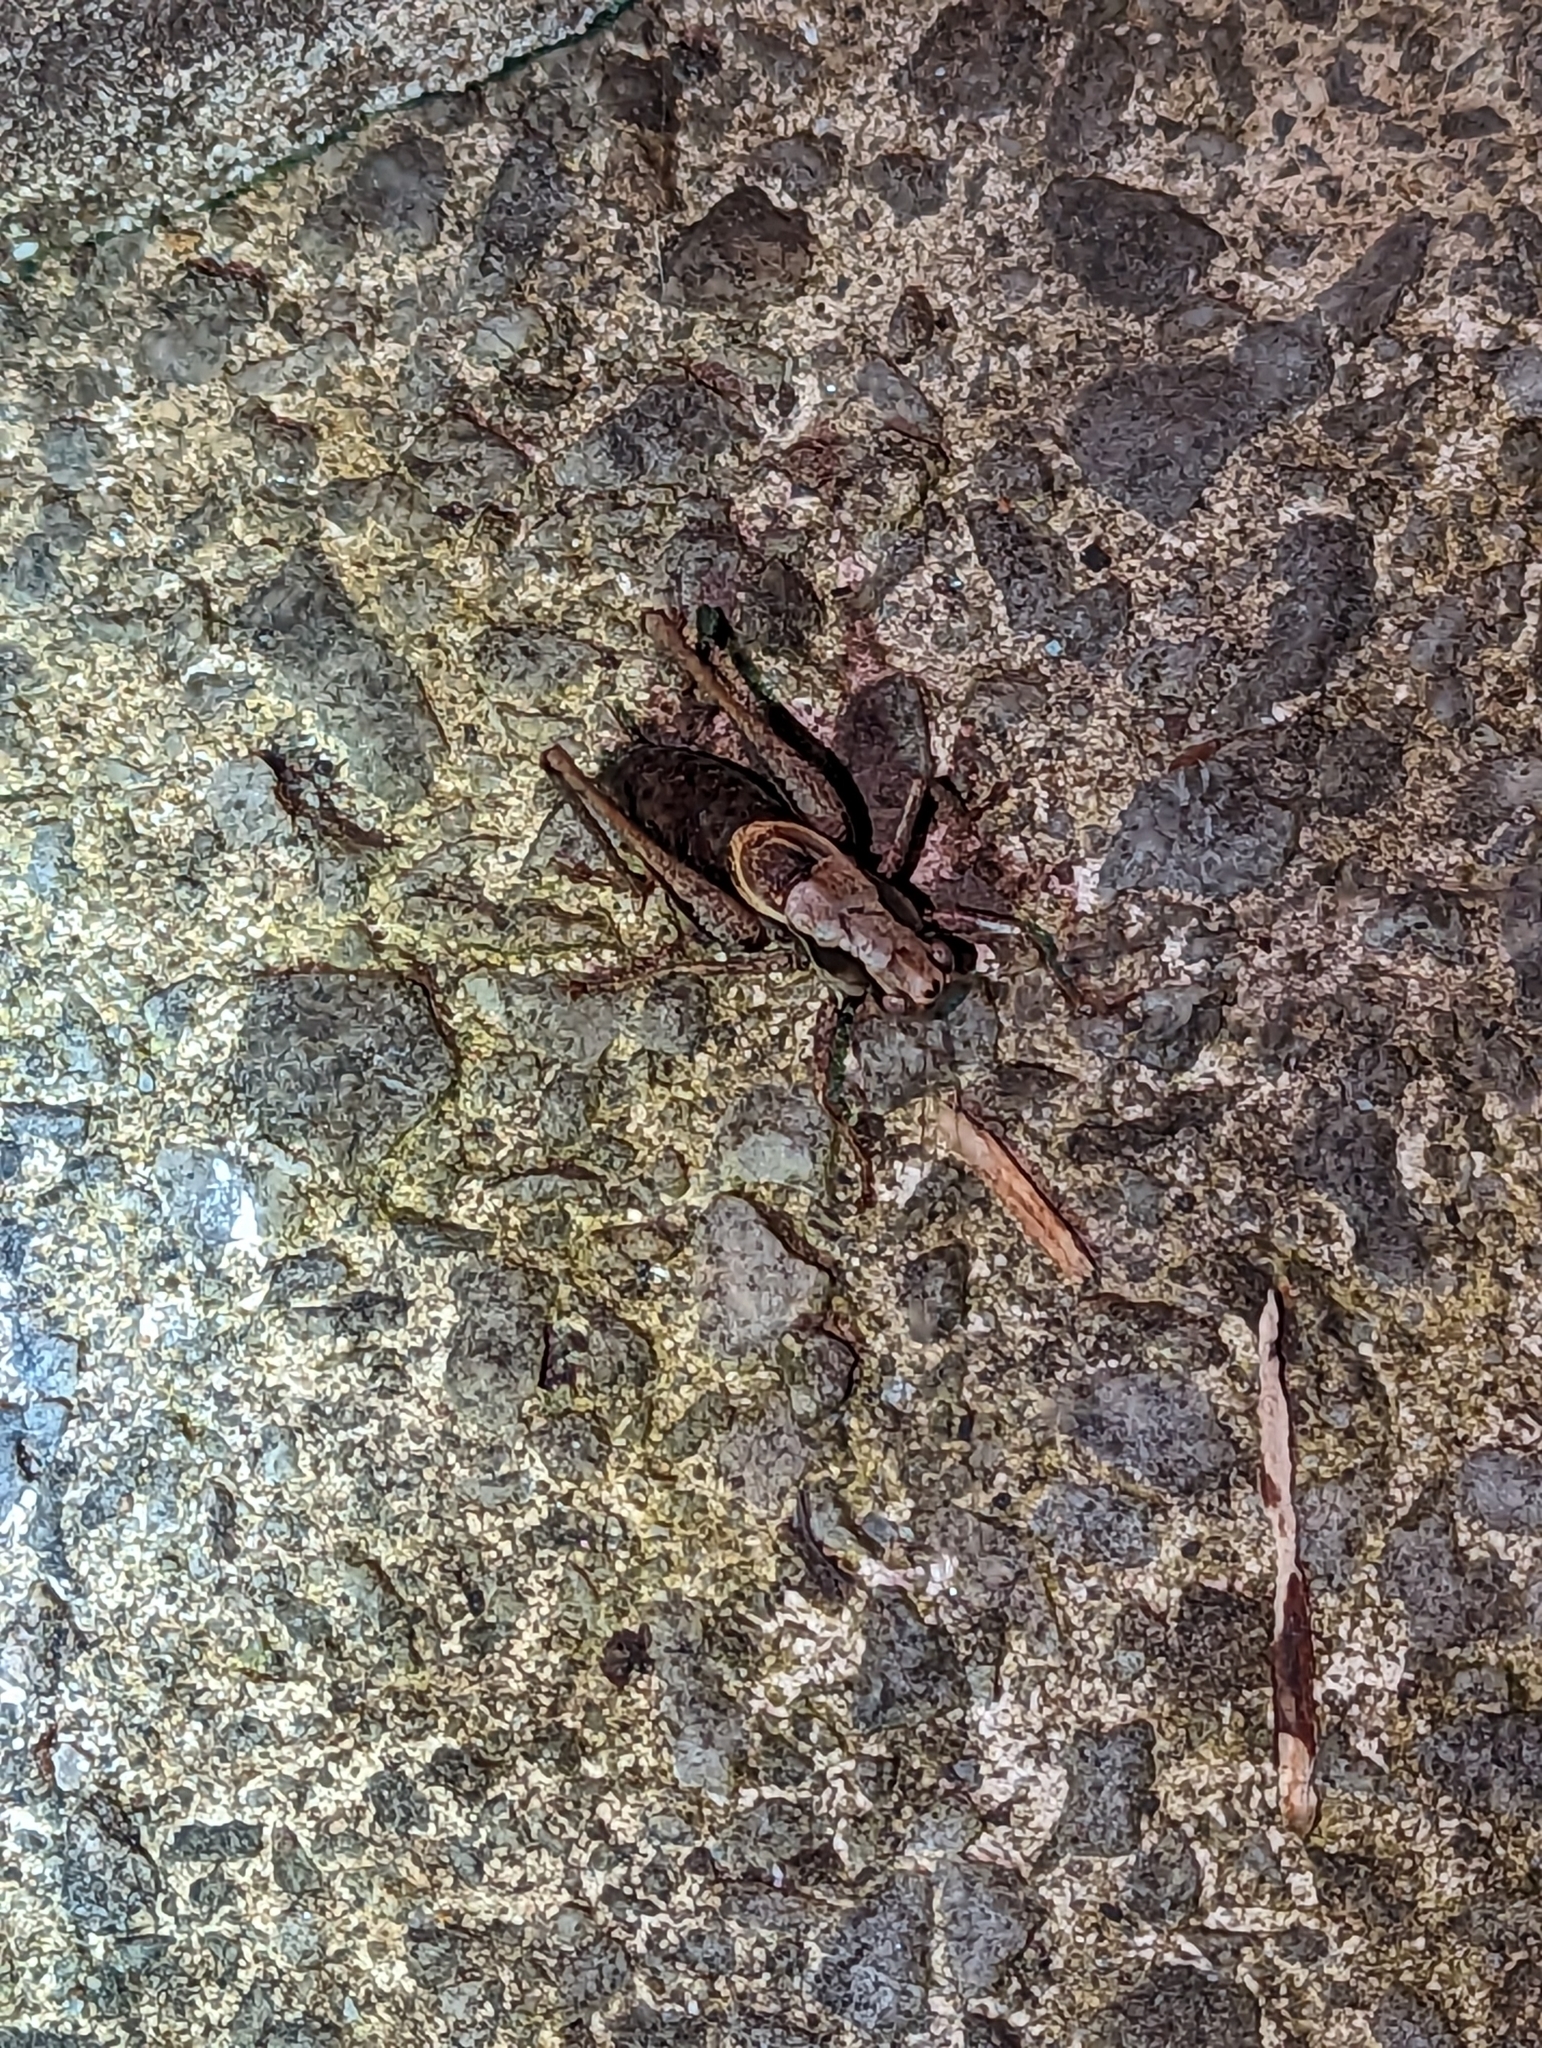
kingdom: Animalia
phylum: Arthropoda
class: Insecta
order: Orthoptera
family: Tettigoniidae
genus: Pholidoptera
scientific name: Pholidoptera griseoaptera
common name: Dark bush-cricket
